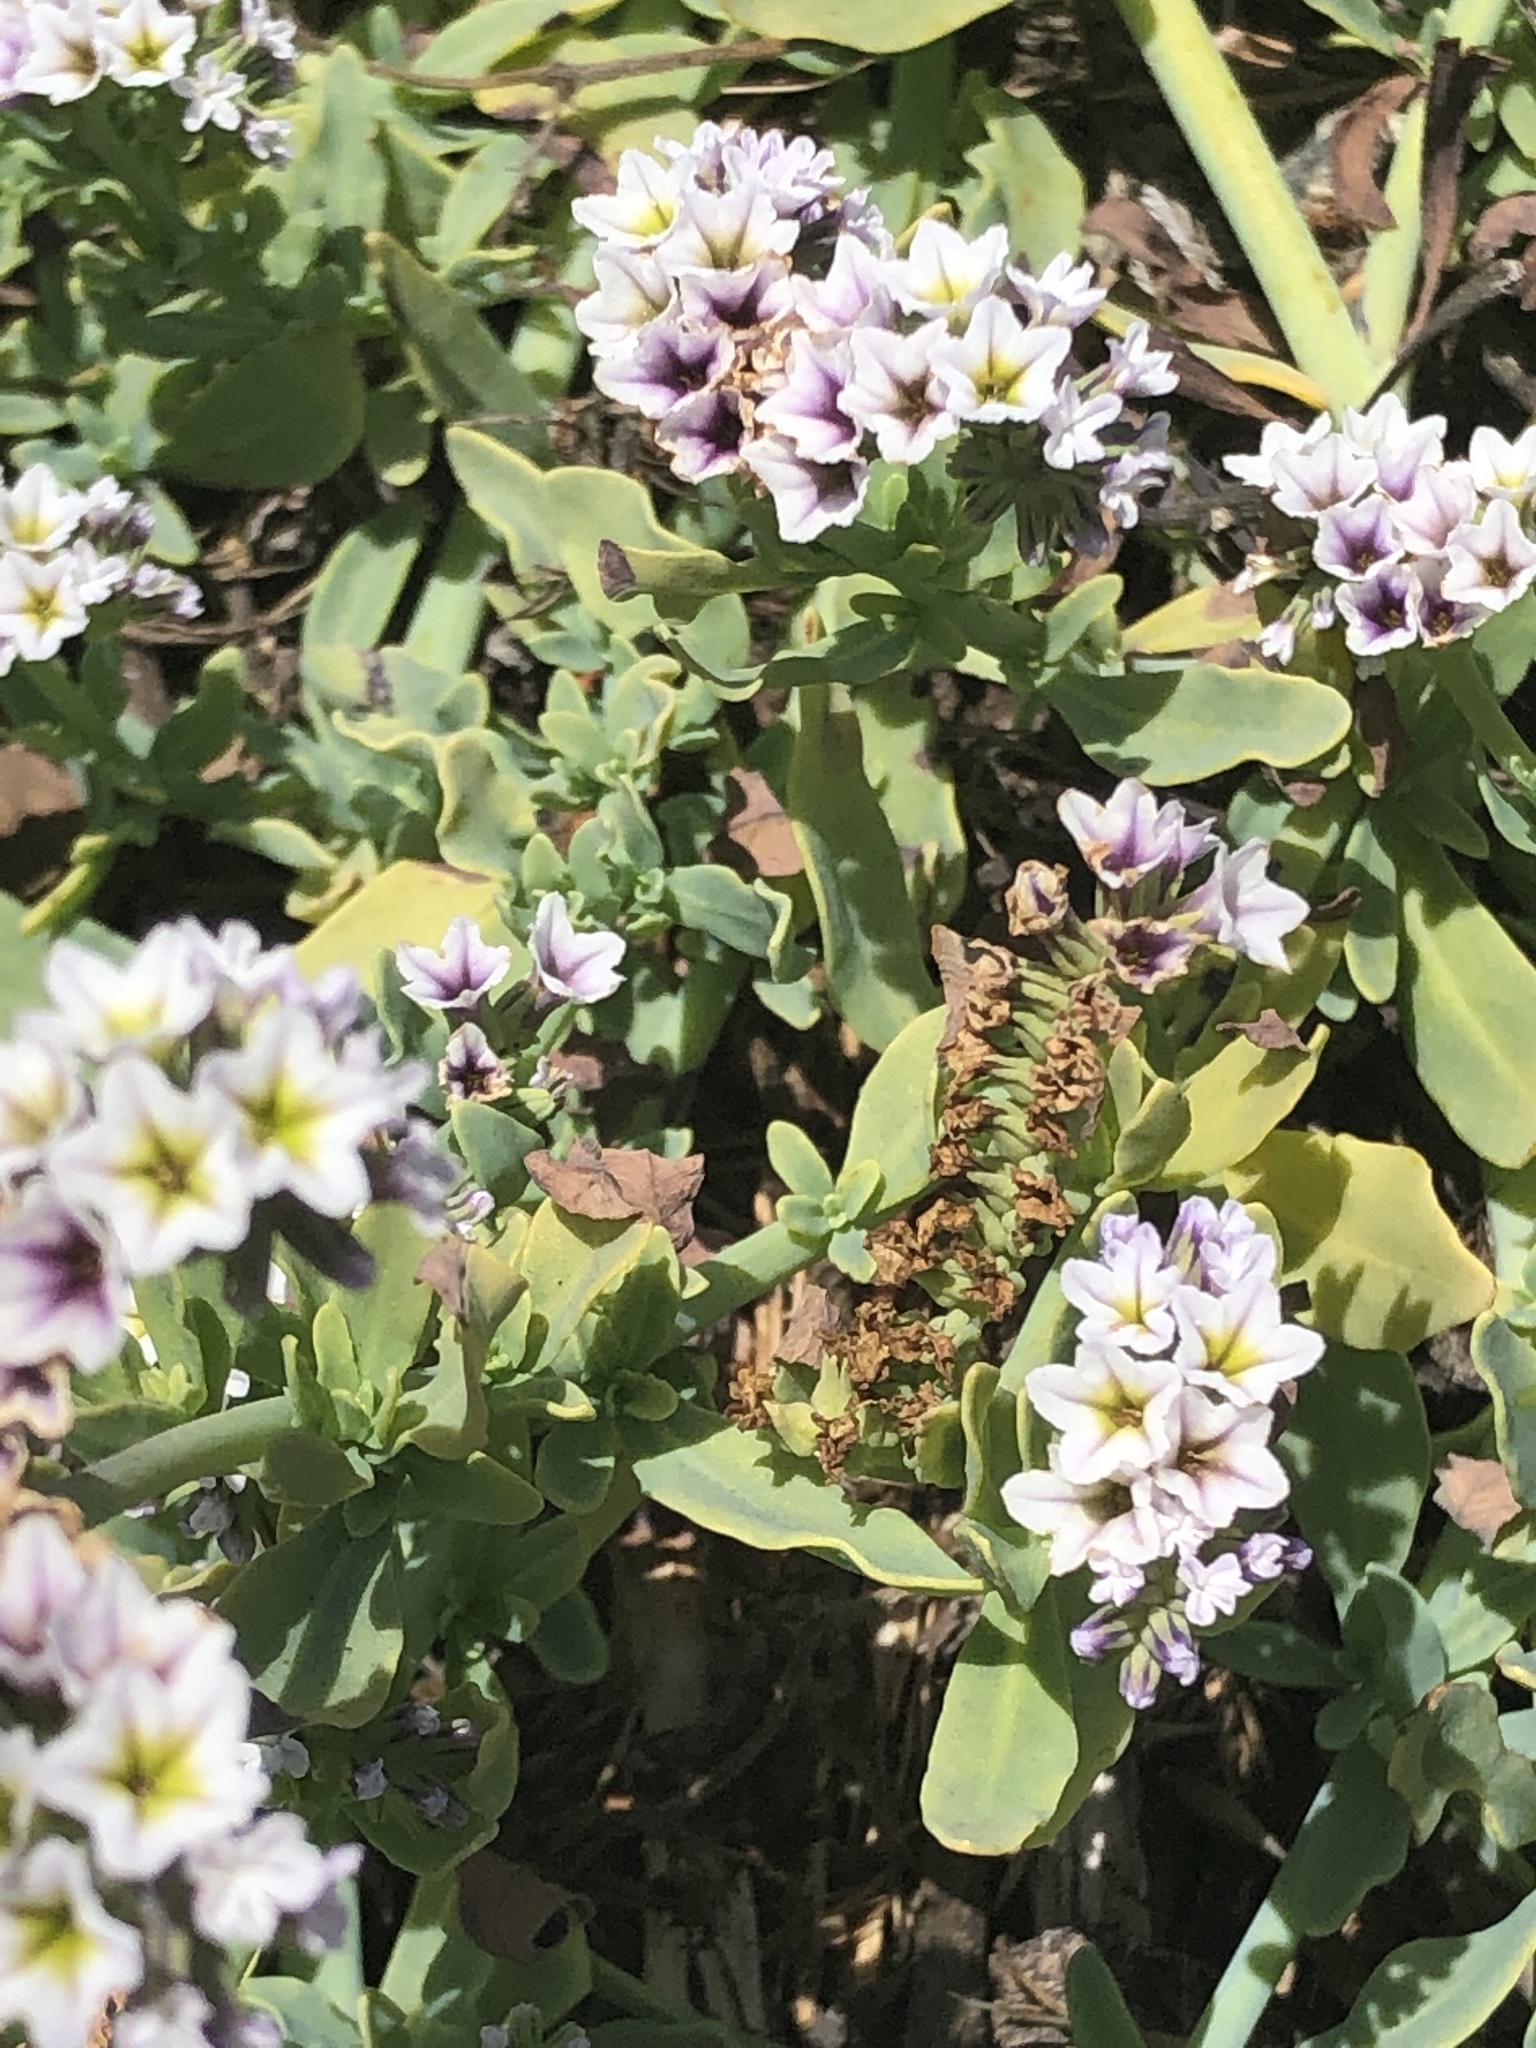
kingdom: Plantae
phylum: Tracheophyta
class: Magnoliopsida
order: Boraginales
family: Heliotropiaceae
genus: Heliotropium
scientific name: Heliotropium curassavicum
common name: Seaside heliotrope
